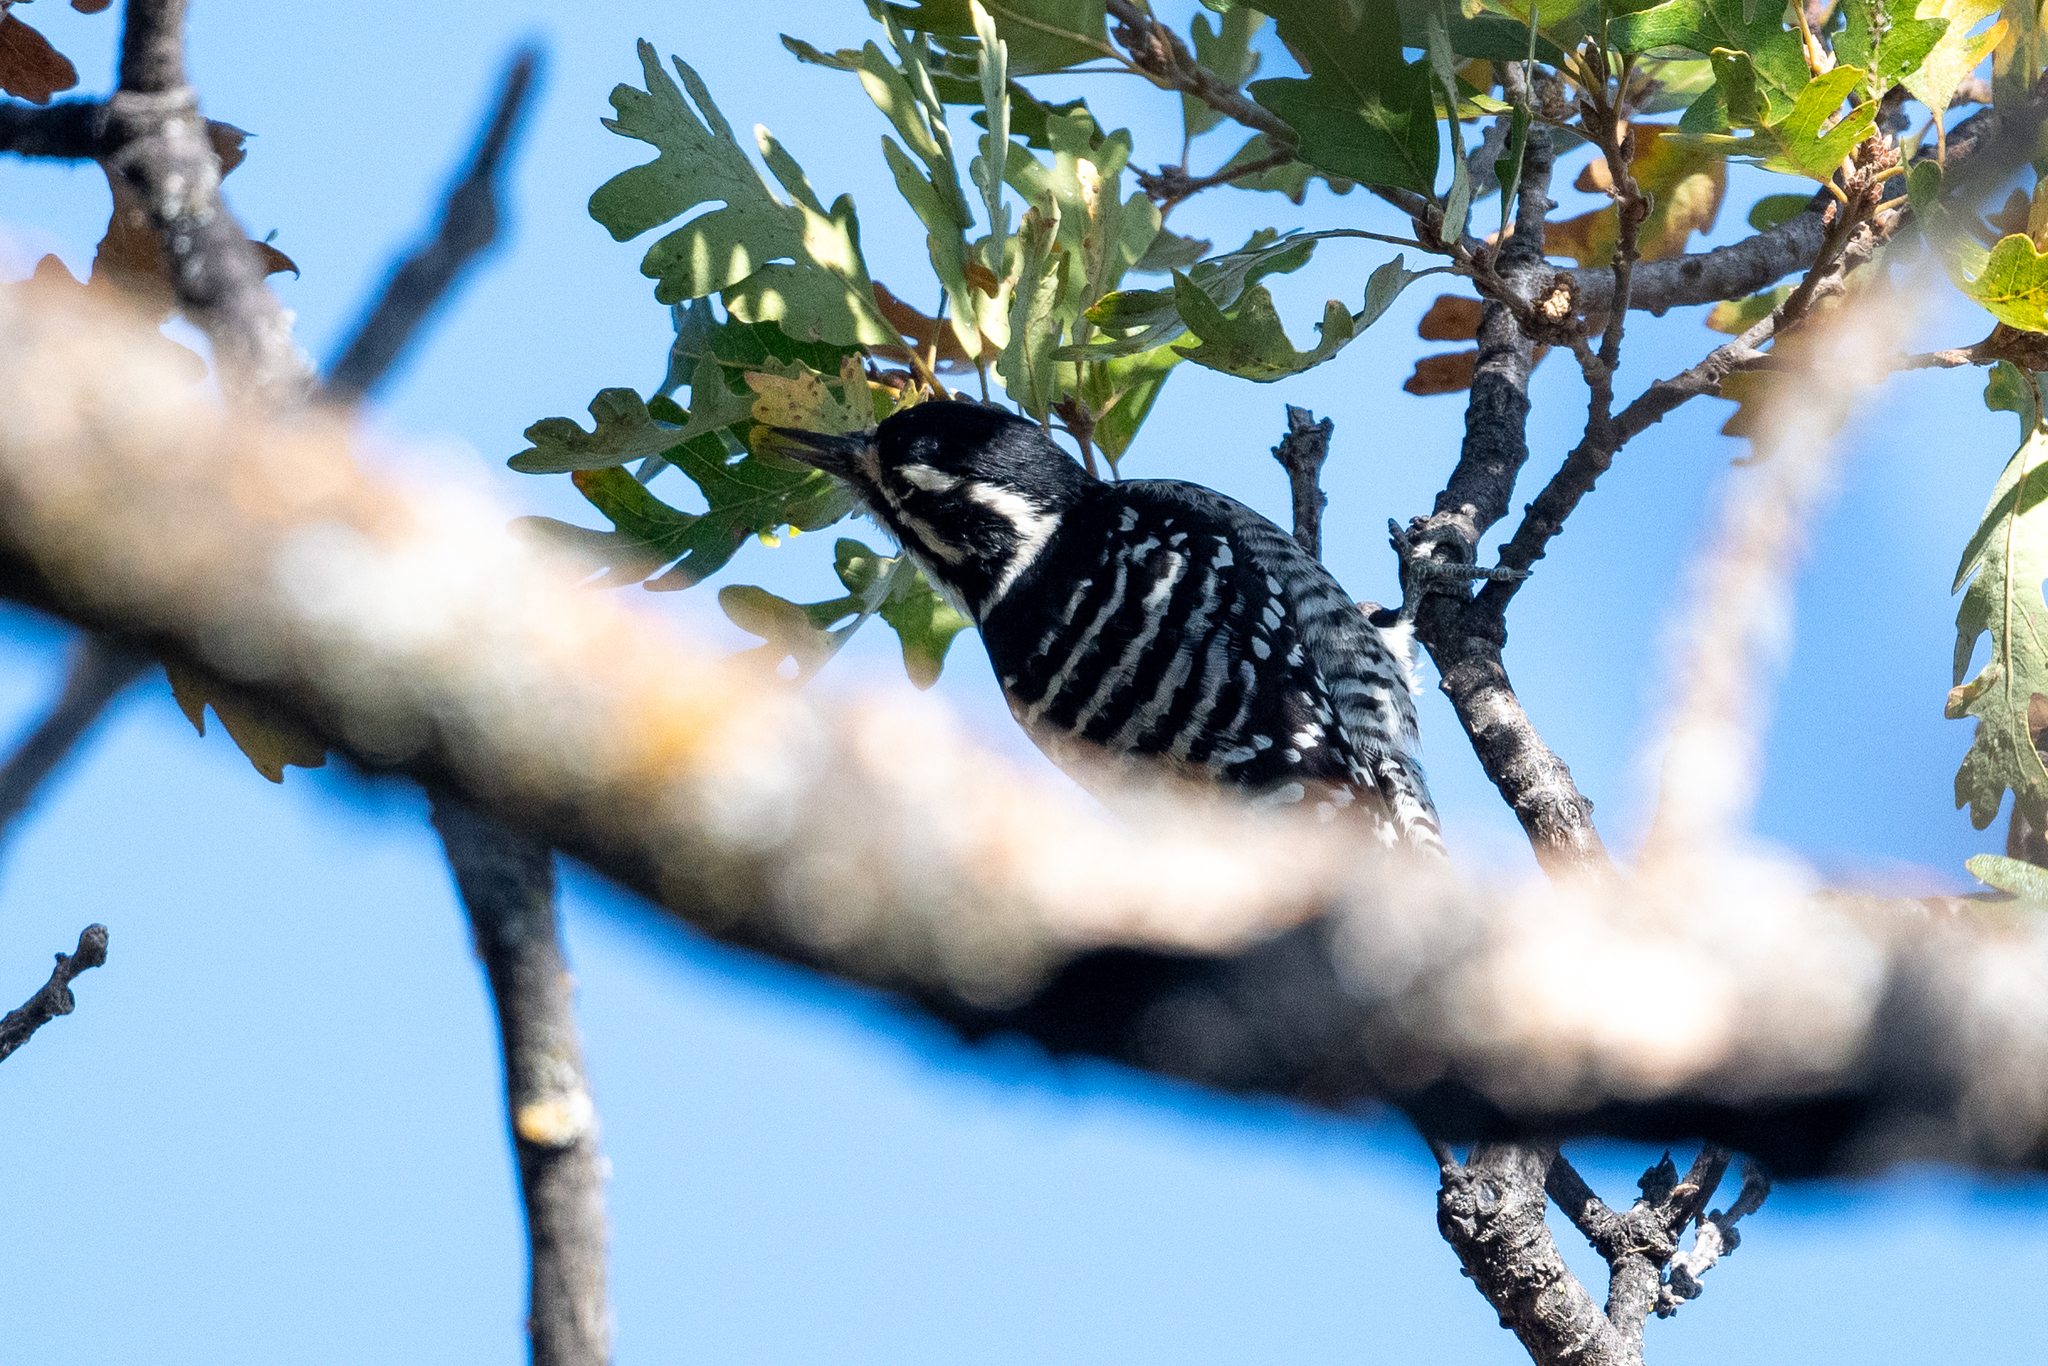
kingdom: Animalia
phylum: Chordata
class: Aves
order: Piciformes
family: Picidae
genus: Dryobates
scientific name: Dryobates nuttallii
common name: Nuttall's woodpecker
